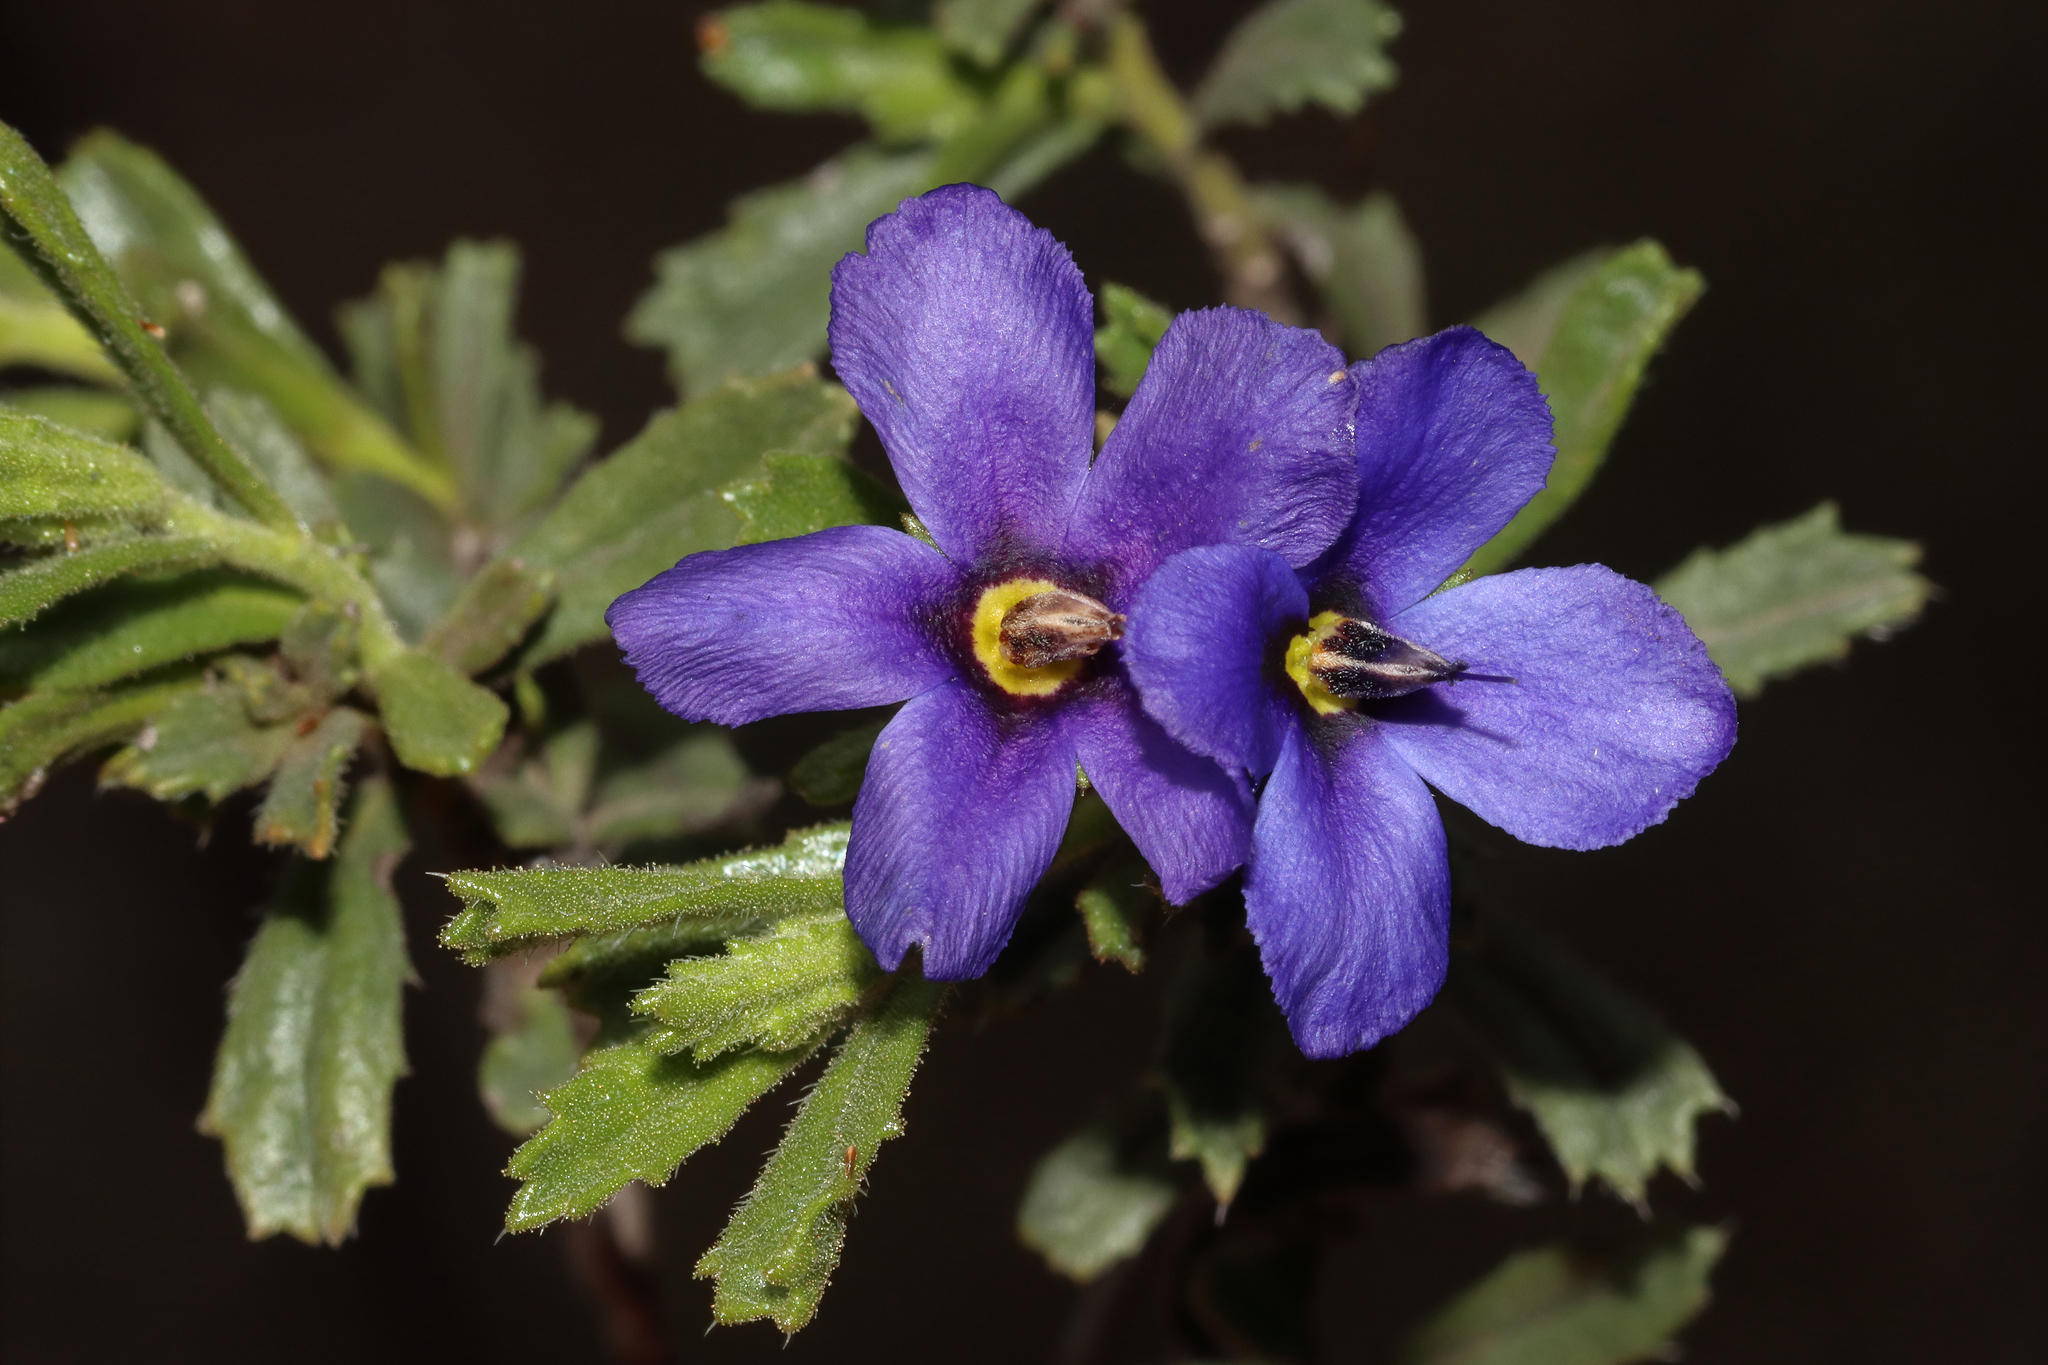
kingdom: Plantae
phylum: Tracheophyta
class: Magnoliopsida
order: Boraginales
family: Ehretiaceae
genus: Halgania
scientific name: Halgania anagalloides
